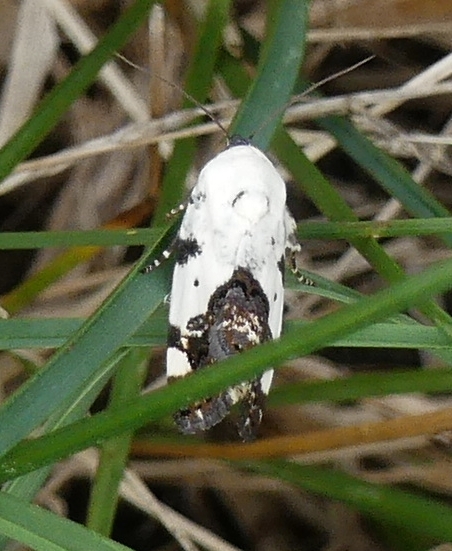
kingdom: Animalia
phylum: Arthropoda
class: Insecta
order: Lepidoptera
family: Noctuidae
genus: Acontia
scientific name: Acontia aprica
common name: Nun
